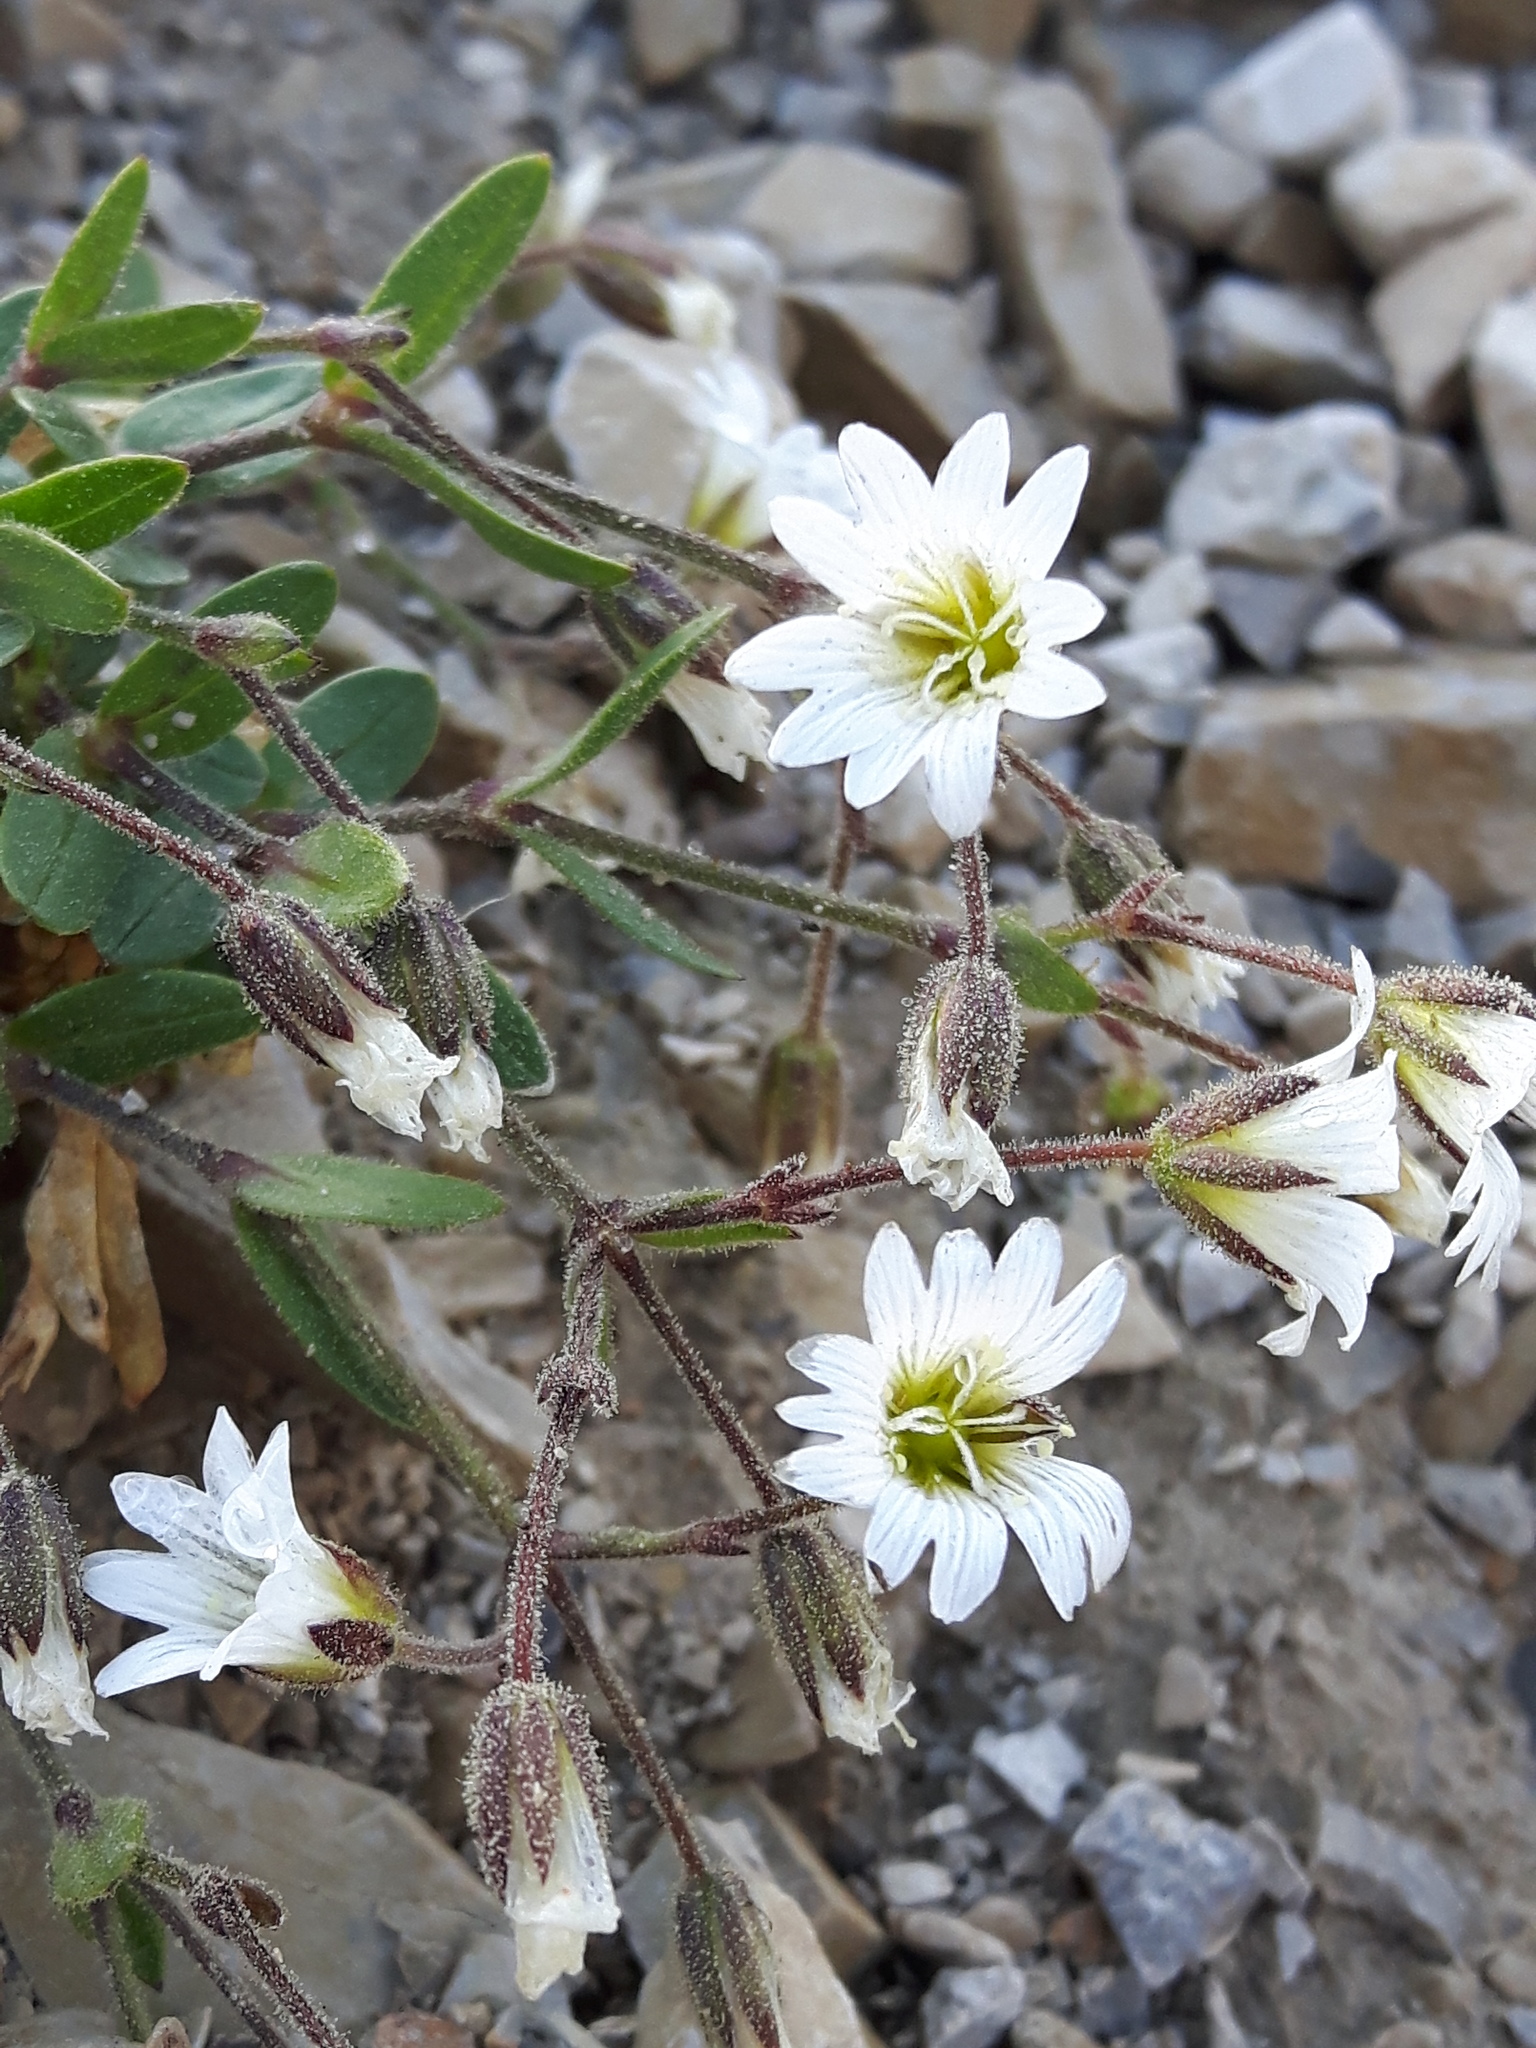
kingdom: Plantae
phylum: Tracheophyta
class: Magnoliopsida
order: Caryophyllales
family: Caryophyllaceae
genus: Cerastium
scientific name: Cerastium beeringianum
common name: Bering mouse-ear chickweed
